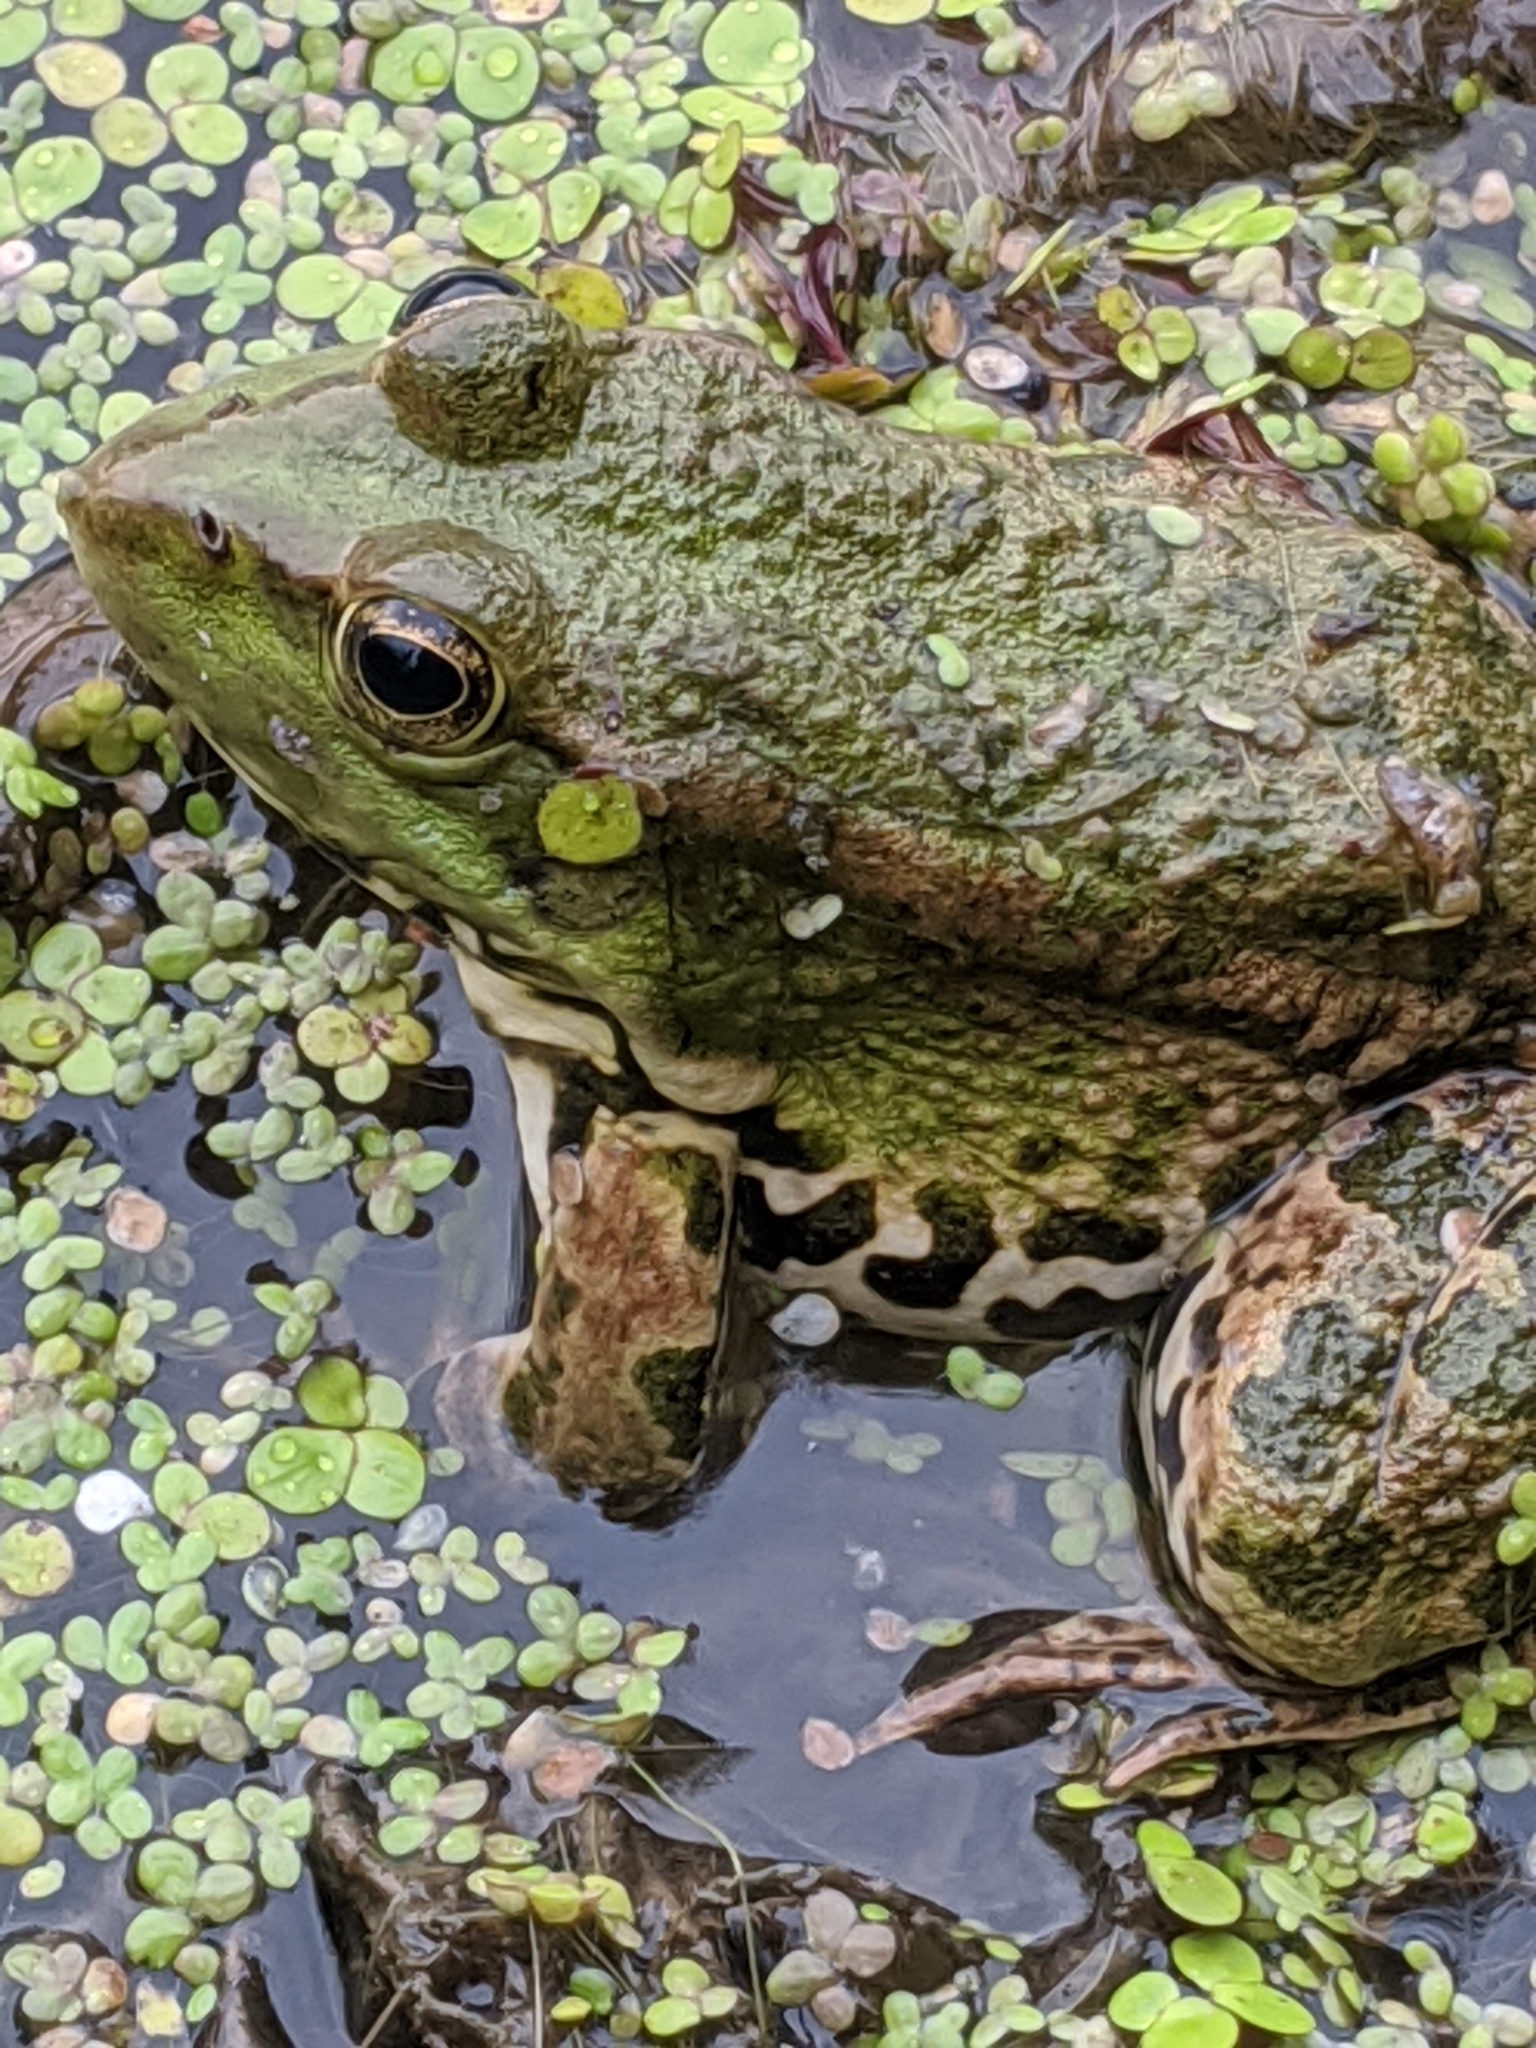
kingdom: Animalia
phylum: Chordata
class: Amphibia
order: Anura
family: Ranidae
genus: Pelophylax
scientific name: Pelophylax ridibundus
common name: Marsh frog
